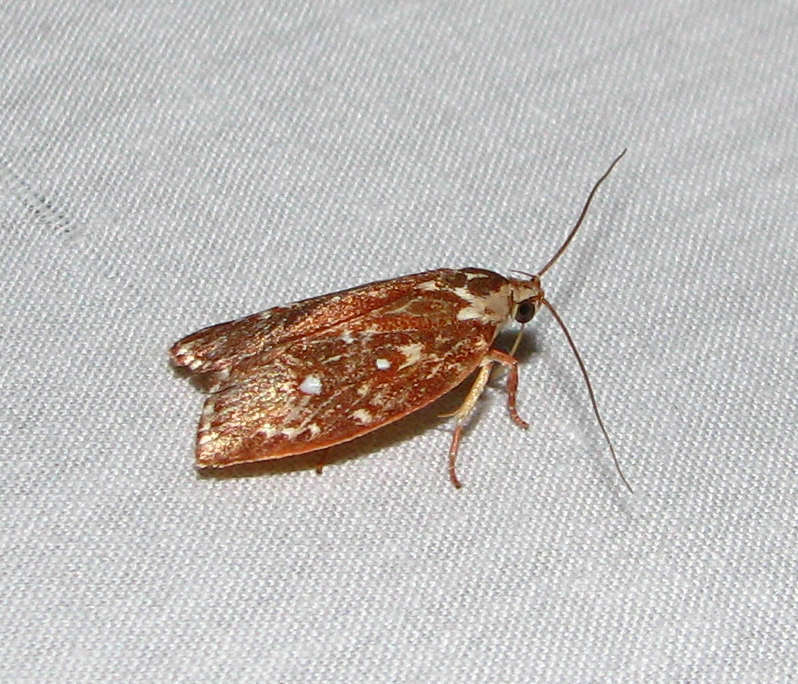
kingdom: Animalia
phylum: Arthropoda
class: Insecta
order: Lepidoptera
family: Oecophoridae
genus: Euchaetis
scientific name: Euchaetis metallota
